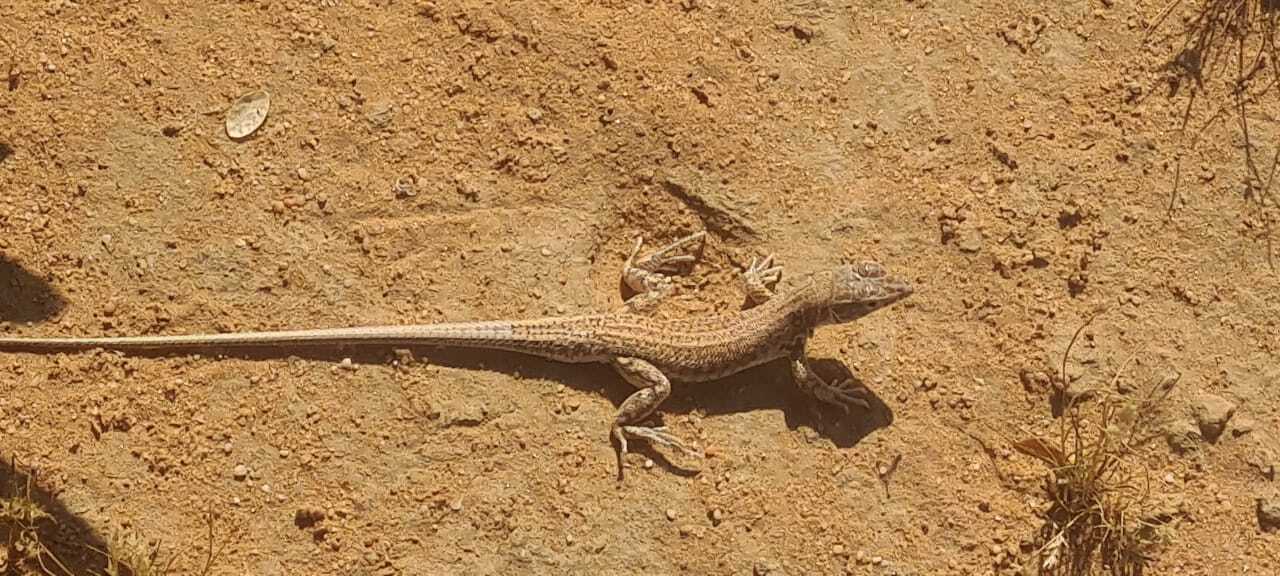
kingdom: Animalia
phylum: Chordata
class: Squamata
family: Lacertidae
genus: Acanthodactylus
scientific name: Acanthodactylus boskianus
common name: Bosc’s fringe-toed lizard
